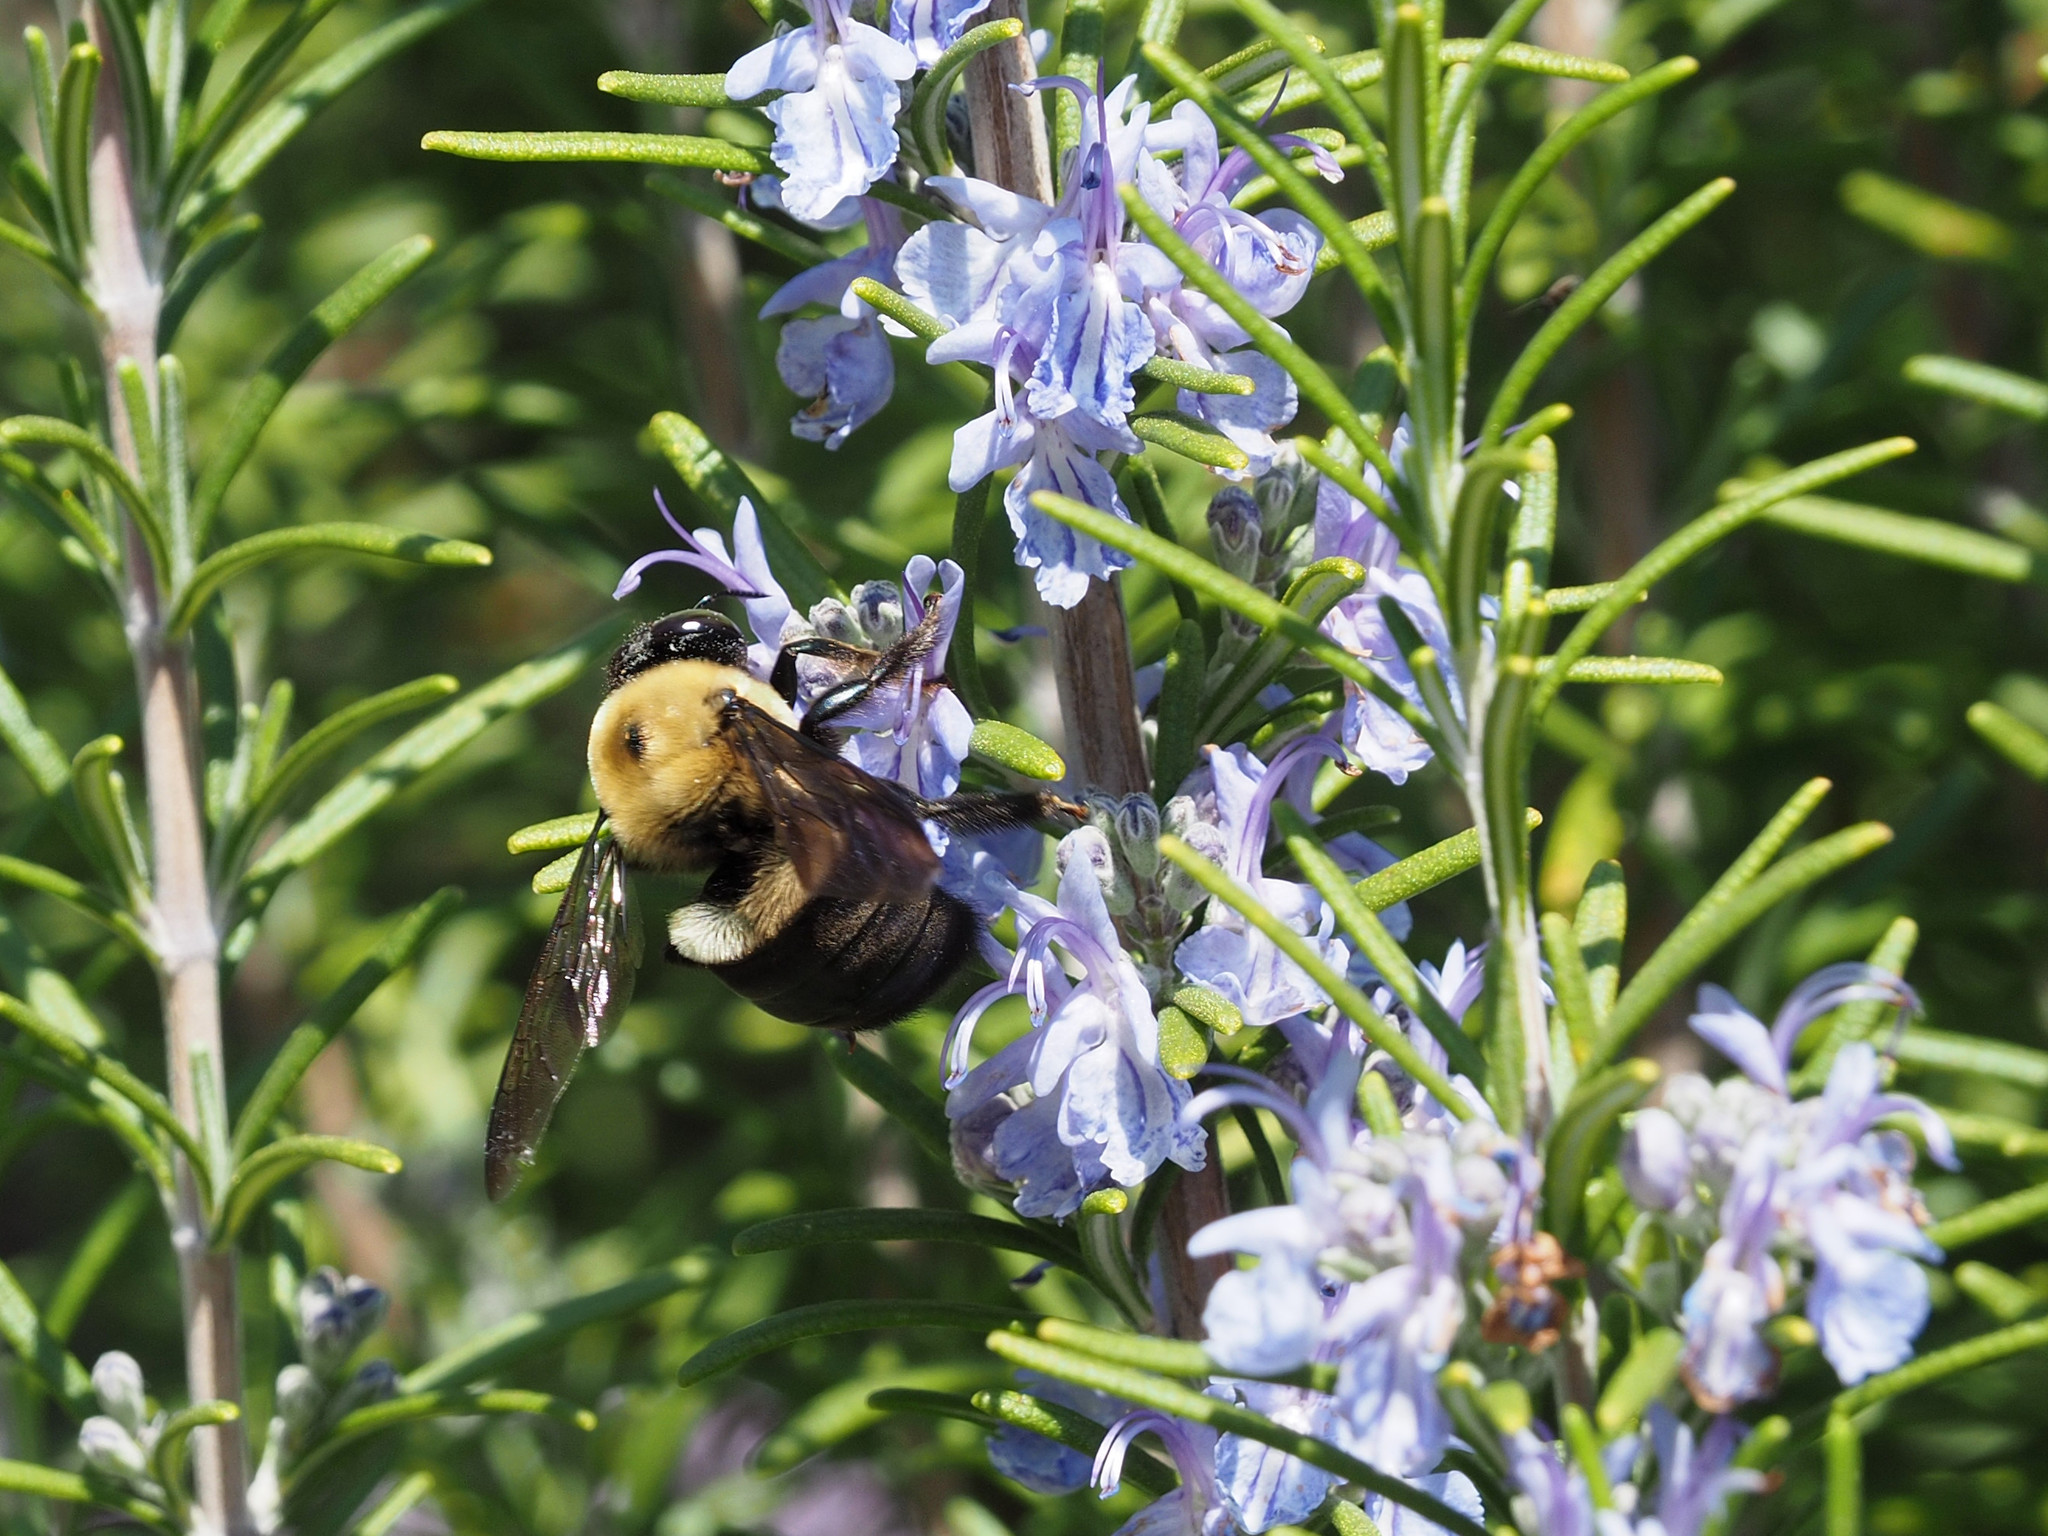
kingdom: Animalia
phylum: Arthropoda
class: Insecta
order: Hymenoptera
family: Apidae
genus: Xylocopa
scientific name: Xylocopa virginica
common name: Carpenter bee
